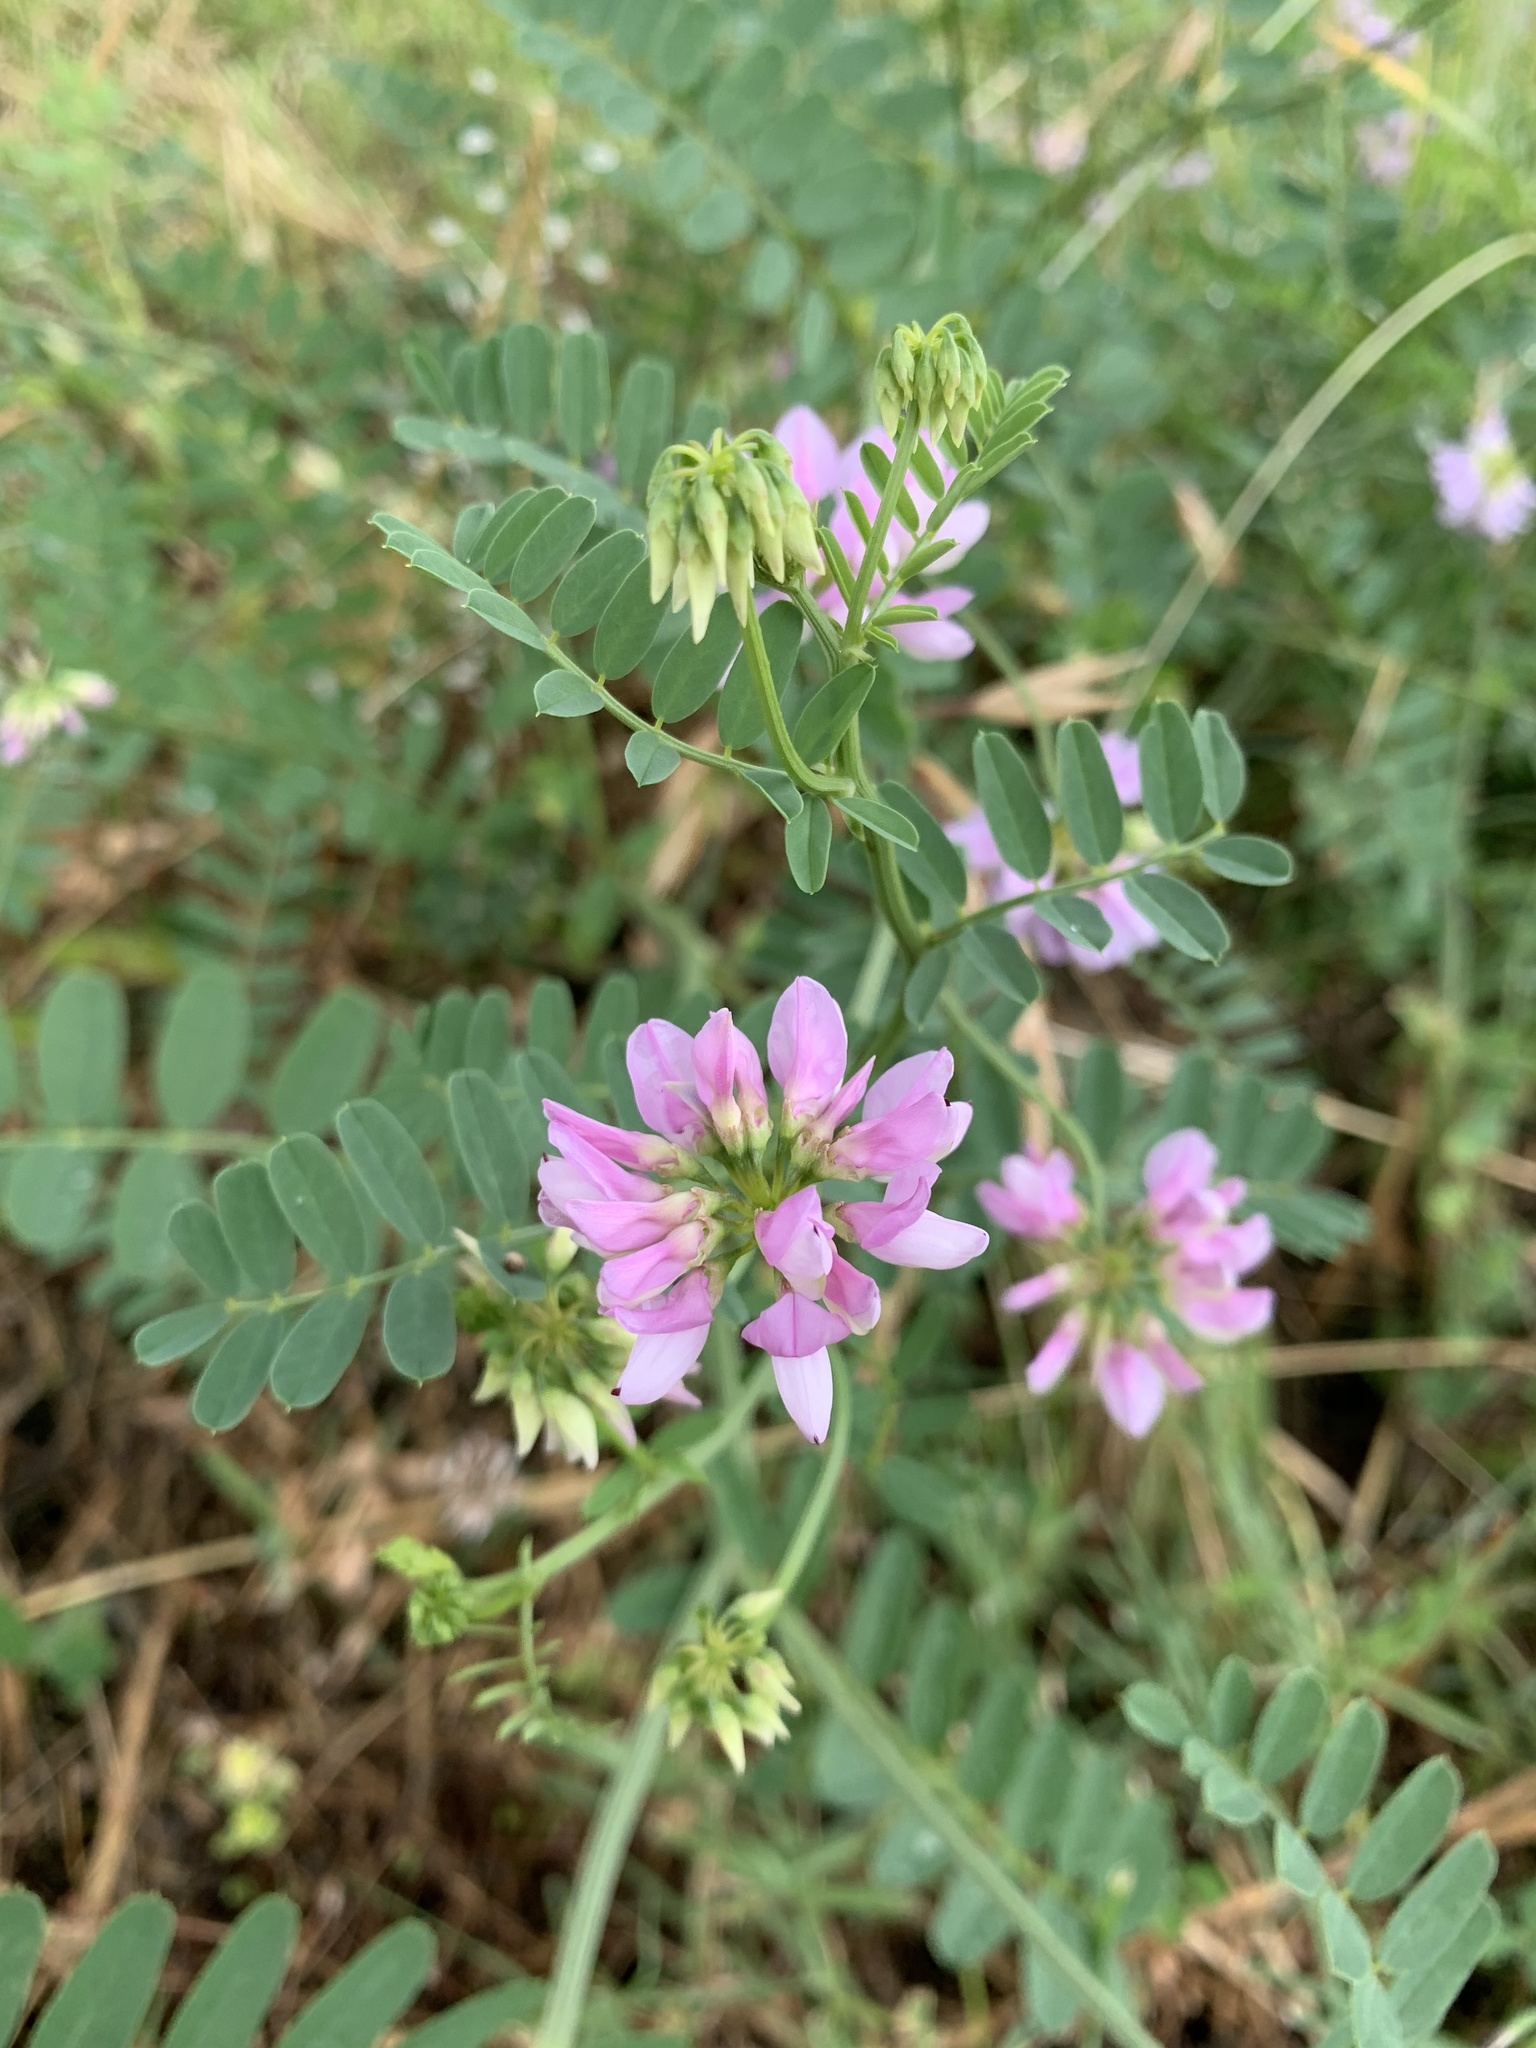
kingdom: Plantae
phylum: Tracheophyta
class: Magnoliopsida
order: Fabales
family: Fabaceae
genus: Coronilla
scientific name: Coronilla varia
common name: Crownvetch
